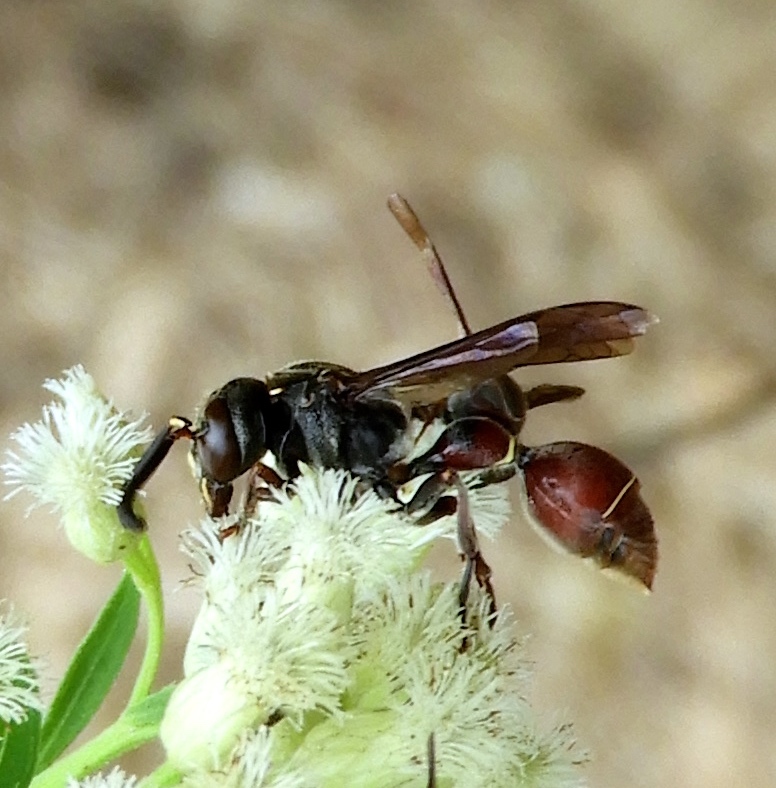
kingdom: Animalia
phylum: Arthropoda
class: Insecta
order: Hymenoptera
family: Eumenidae
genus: Zethus
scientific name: Zethus analis
